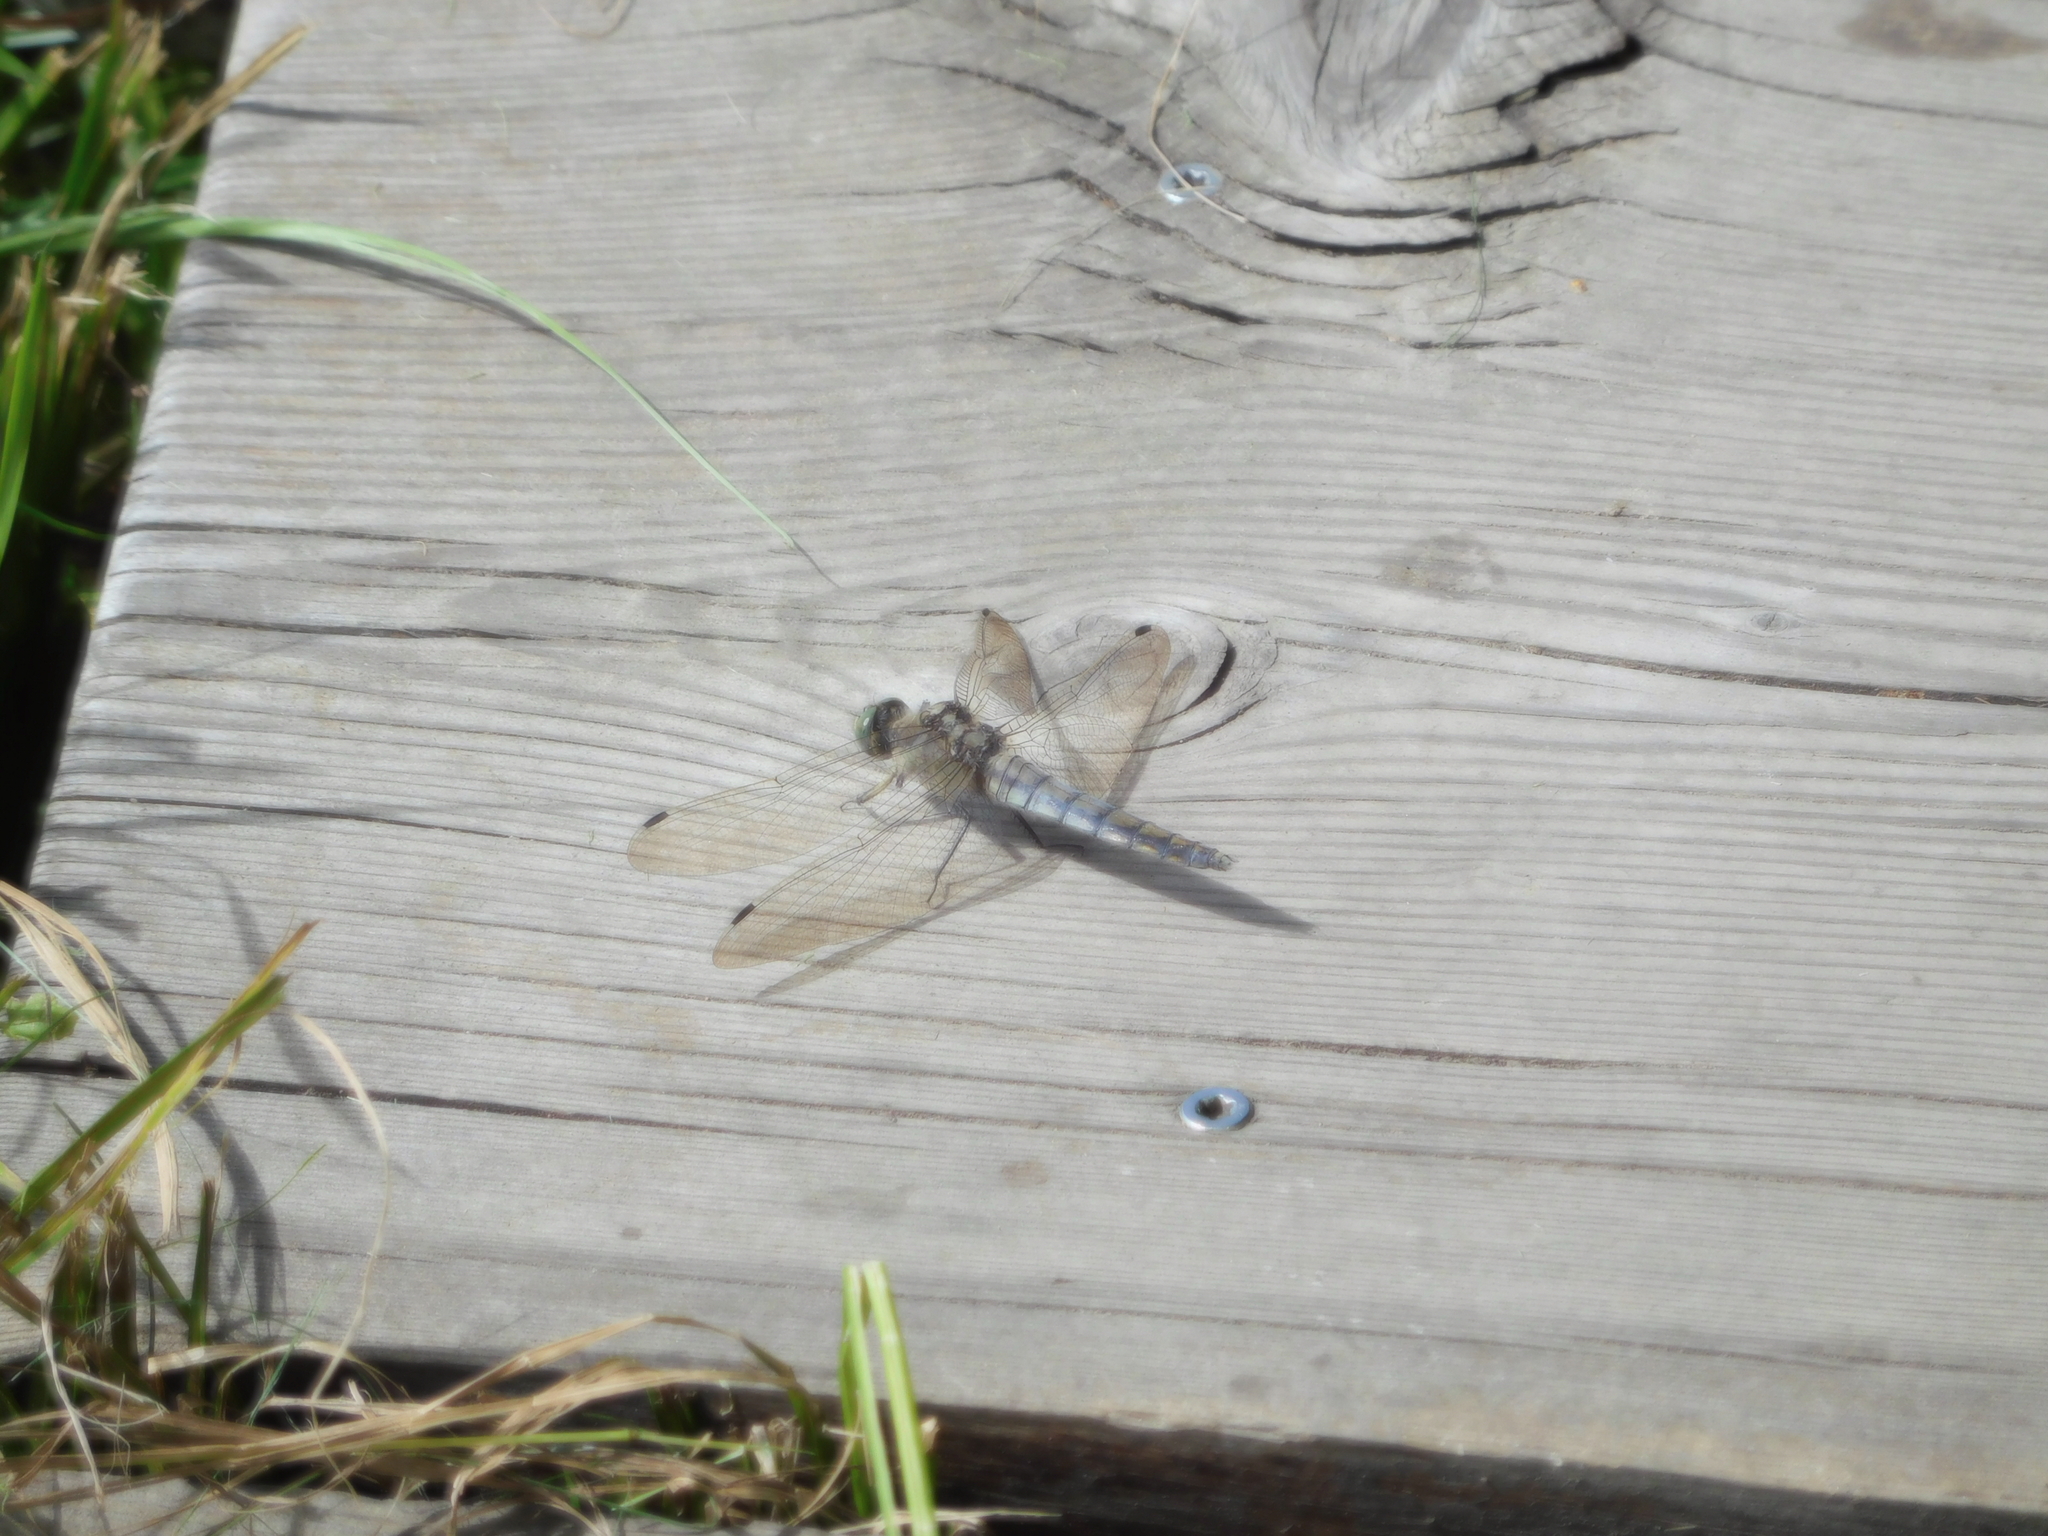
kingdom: Animalia
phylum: Arthropoda
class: Insecta
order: Odonata
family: Libellulidae
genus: Orthetrum
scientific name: Orthetrum cancellatum
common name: Black-tailed skimmer
